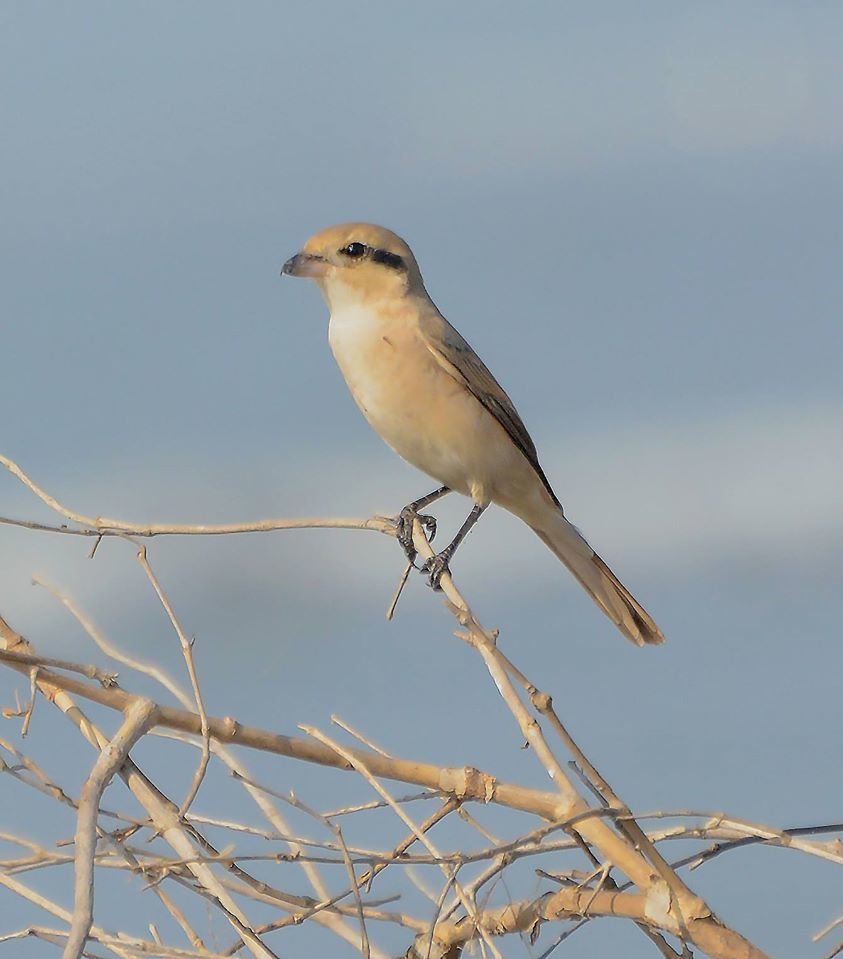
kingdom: Animalia
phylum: Chordata
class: Aves
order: Passeriformes
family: Laniidae
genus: Lanius
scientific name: Lanius isabellinus
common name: Isabelline shrike
